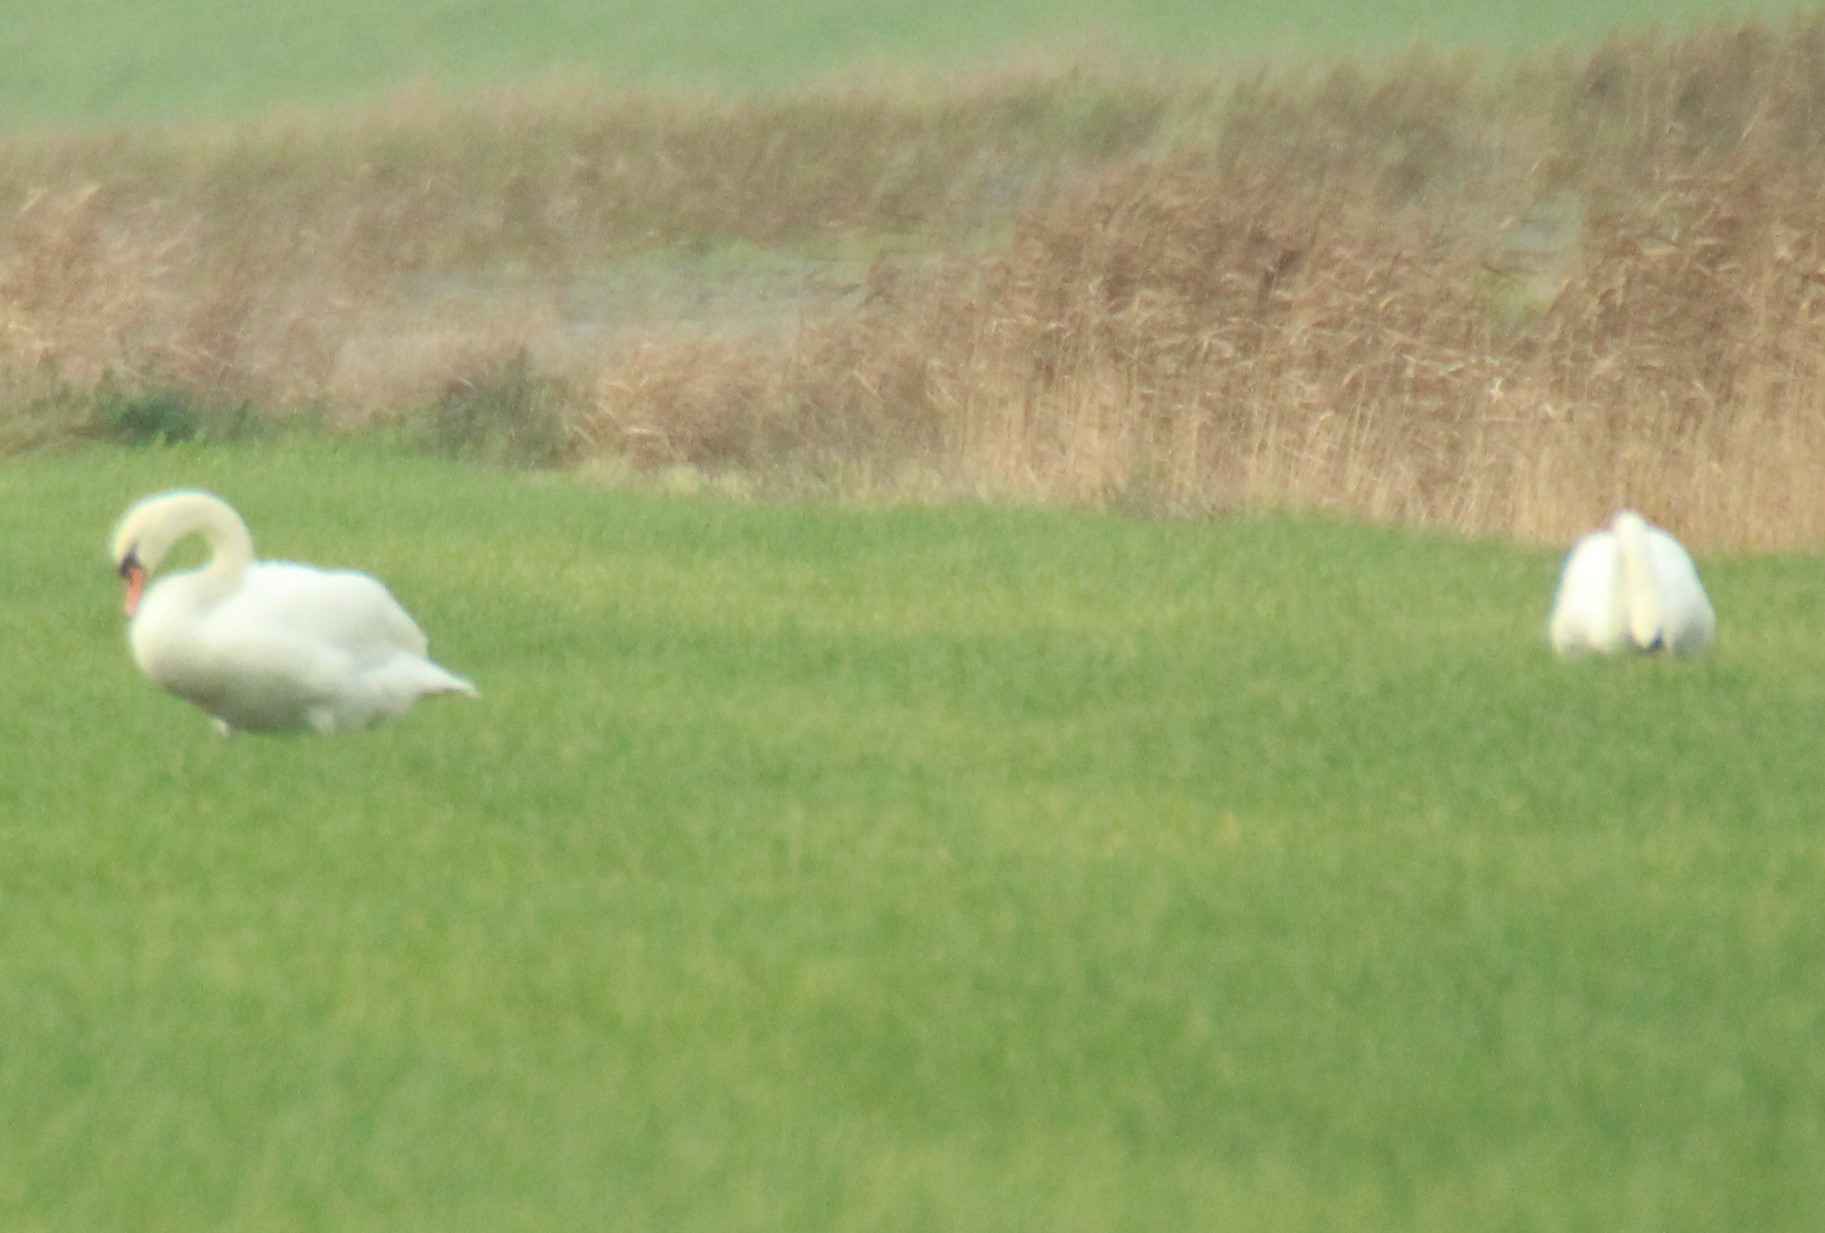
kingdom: Animalia
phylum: Chordata
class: Aves
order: Anseriformes
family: Anatidae
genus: Cygnus
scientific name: Cygnus olor
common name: Mute swan
